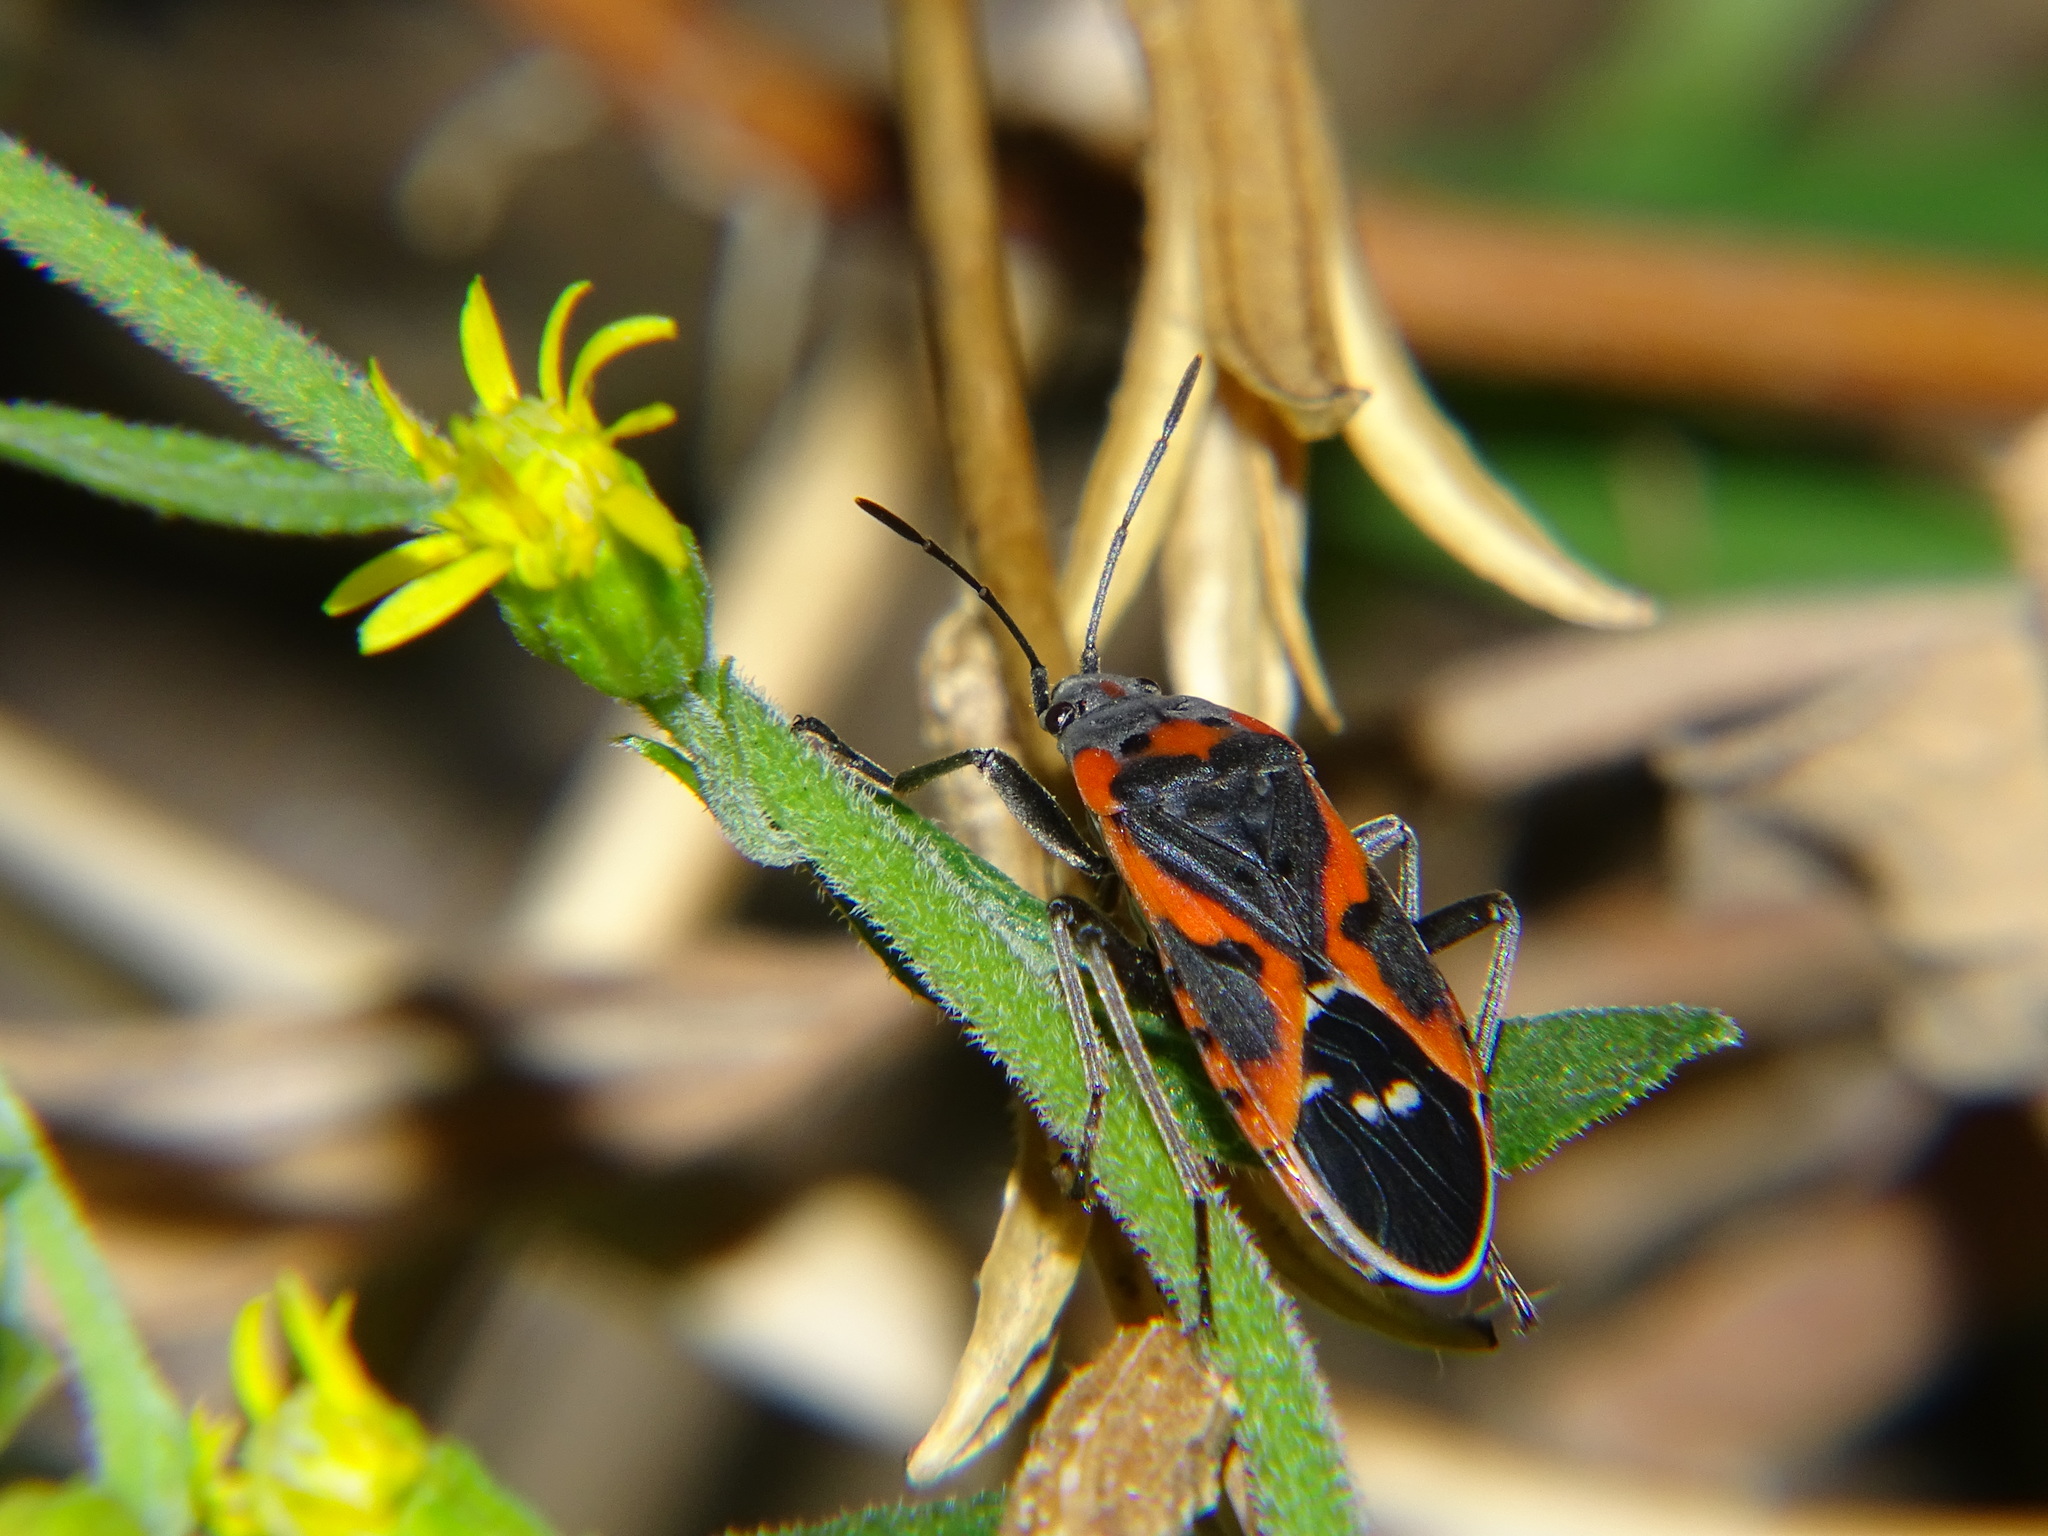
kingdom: Animalia
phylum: Arthropoda
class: Insecta
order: Hemiptera
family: Lygaeidae
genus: Lygaeus
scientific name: Lygaeus kalmii
